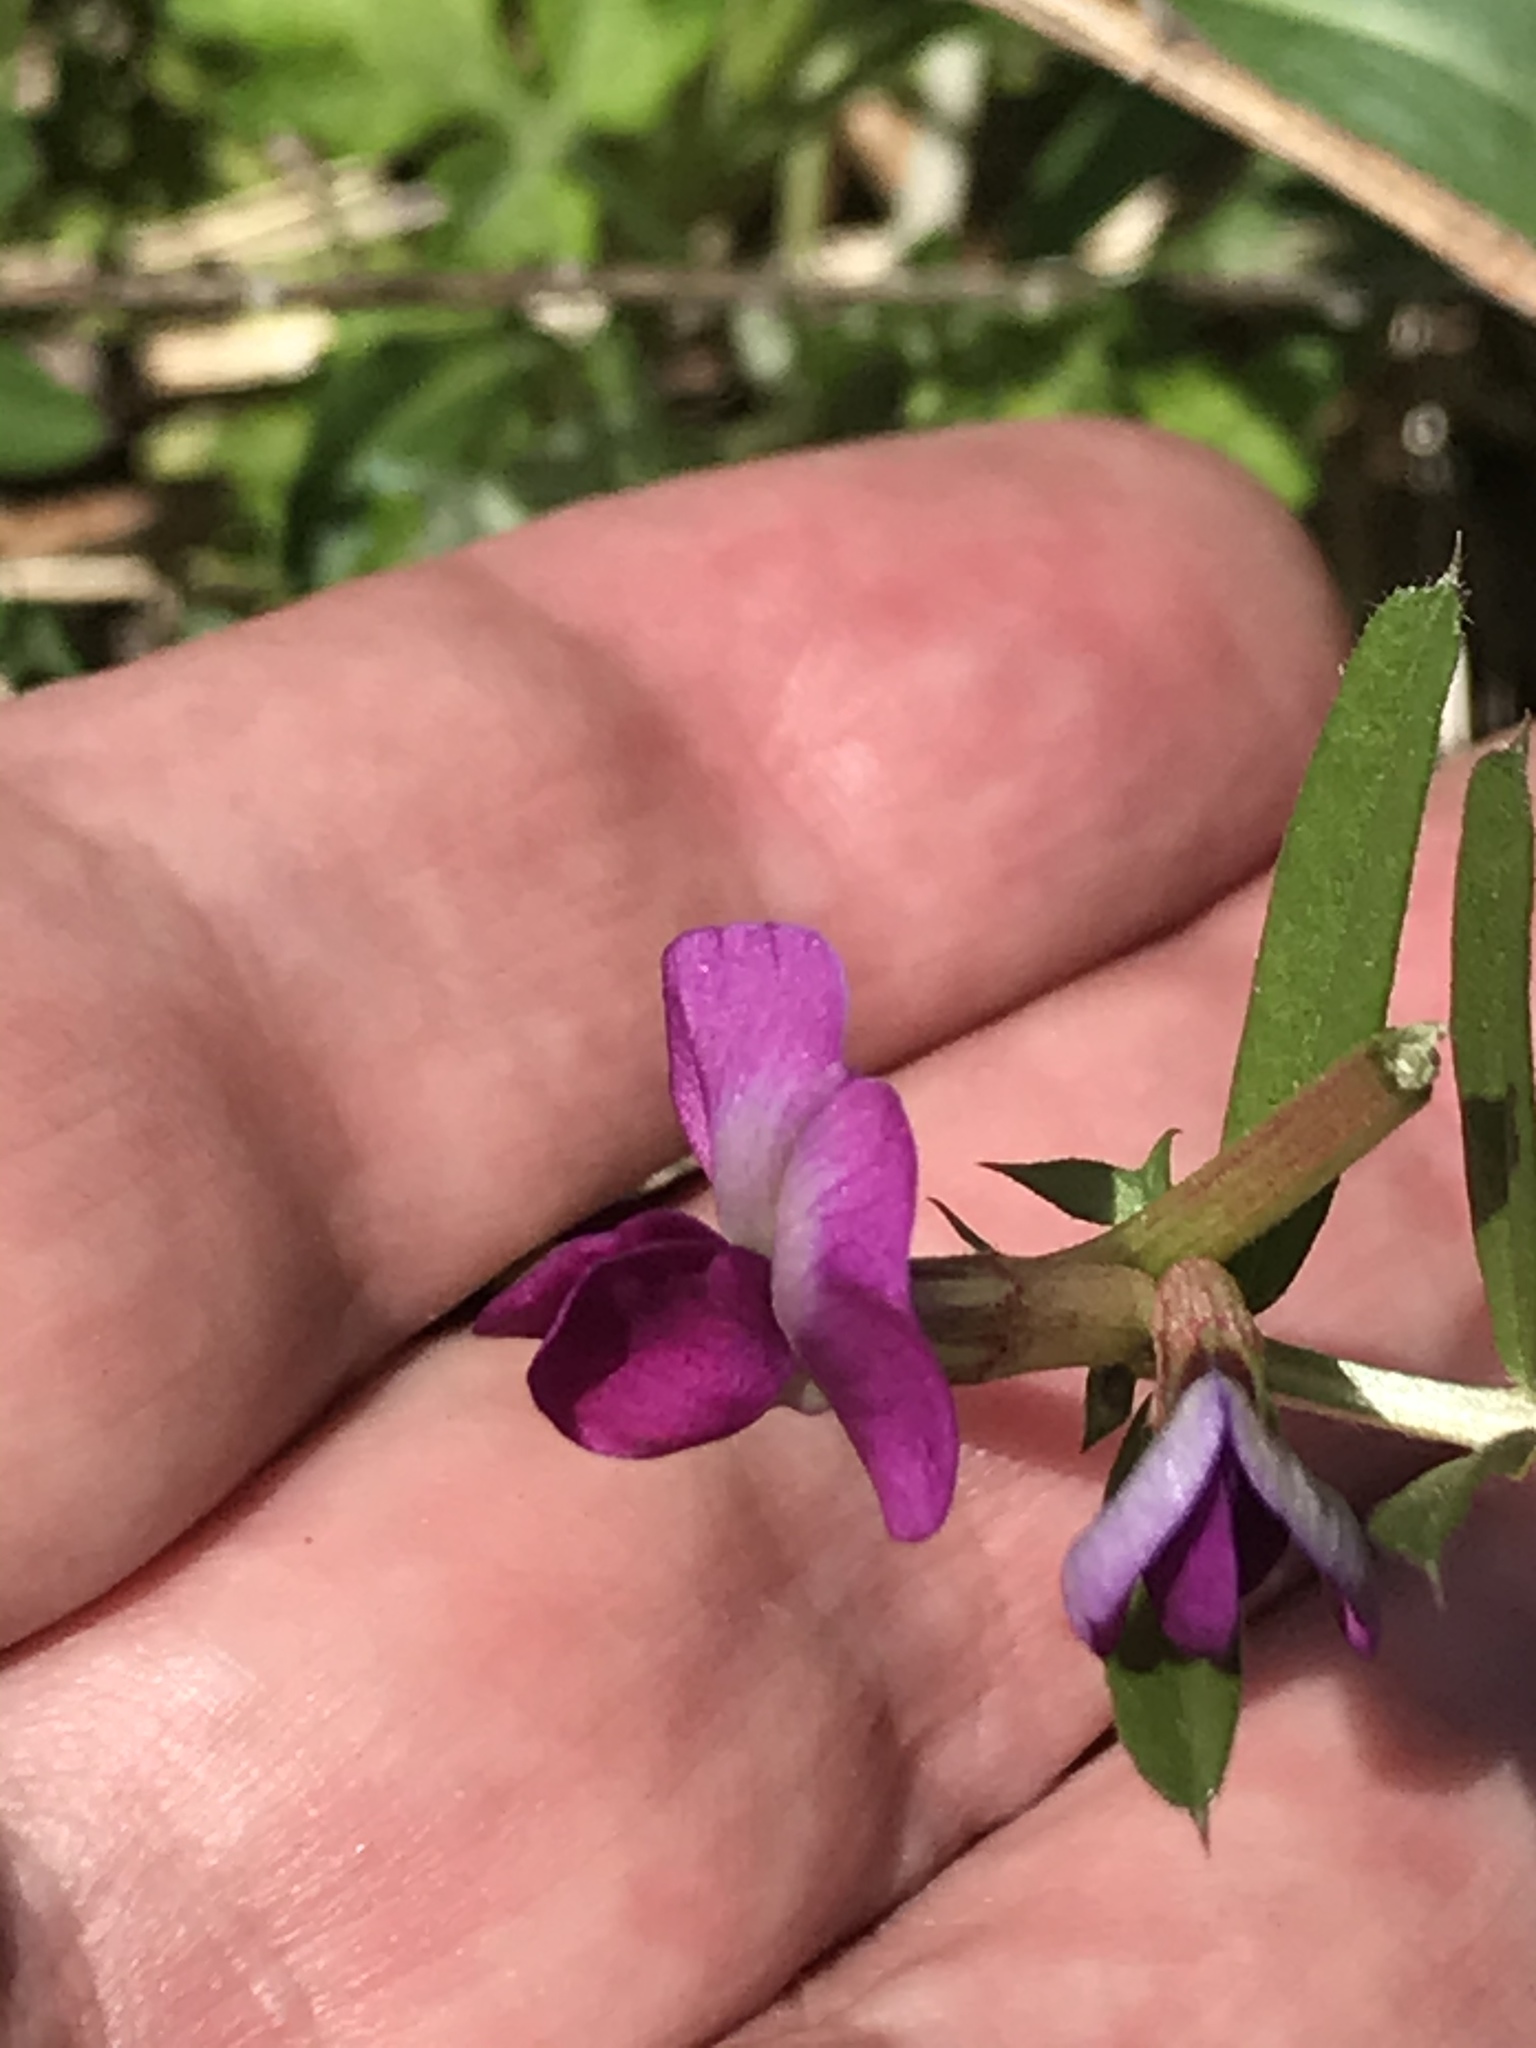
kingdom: Plantae
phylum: Tracheophyta
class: Magnoliopsida
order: Fabales
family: Fabaceae
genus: Vicia
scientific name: Vicia sativa
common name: Garden vetch
